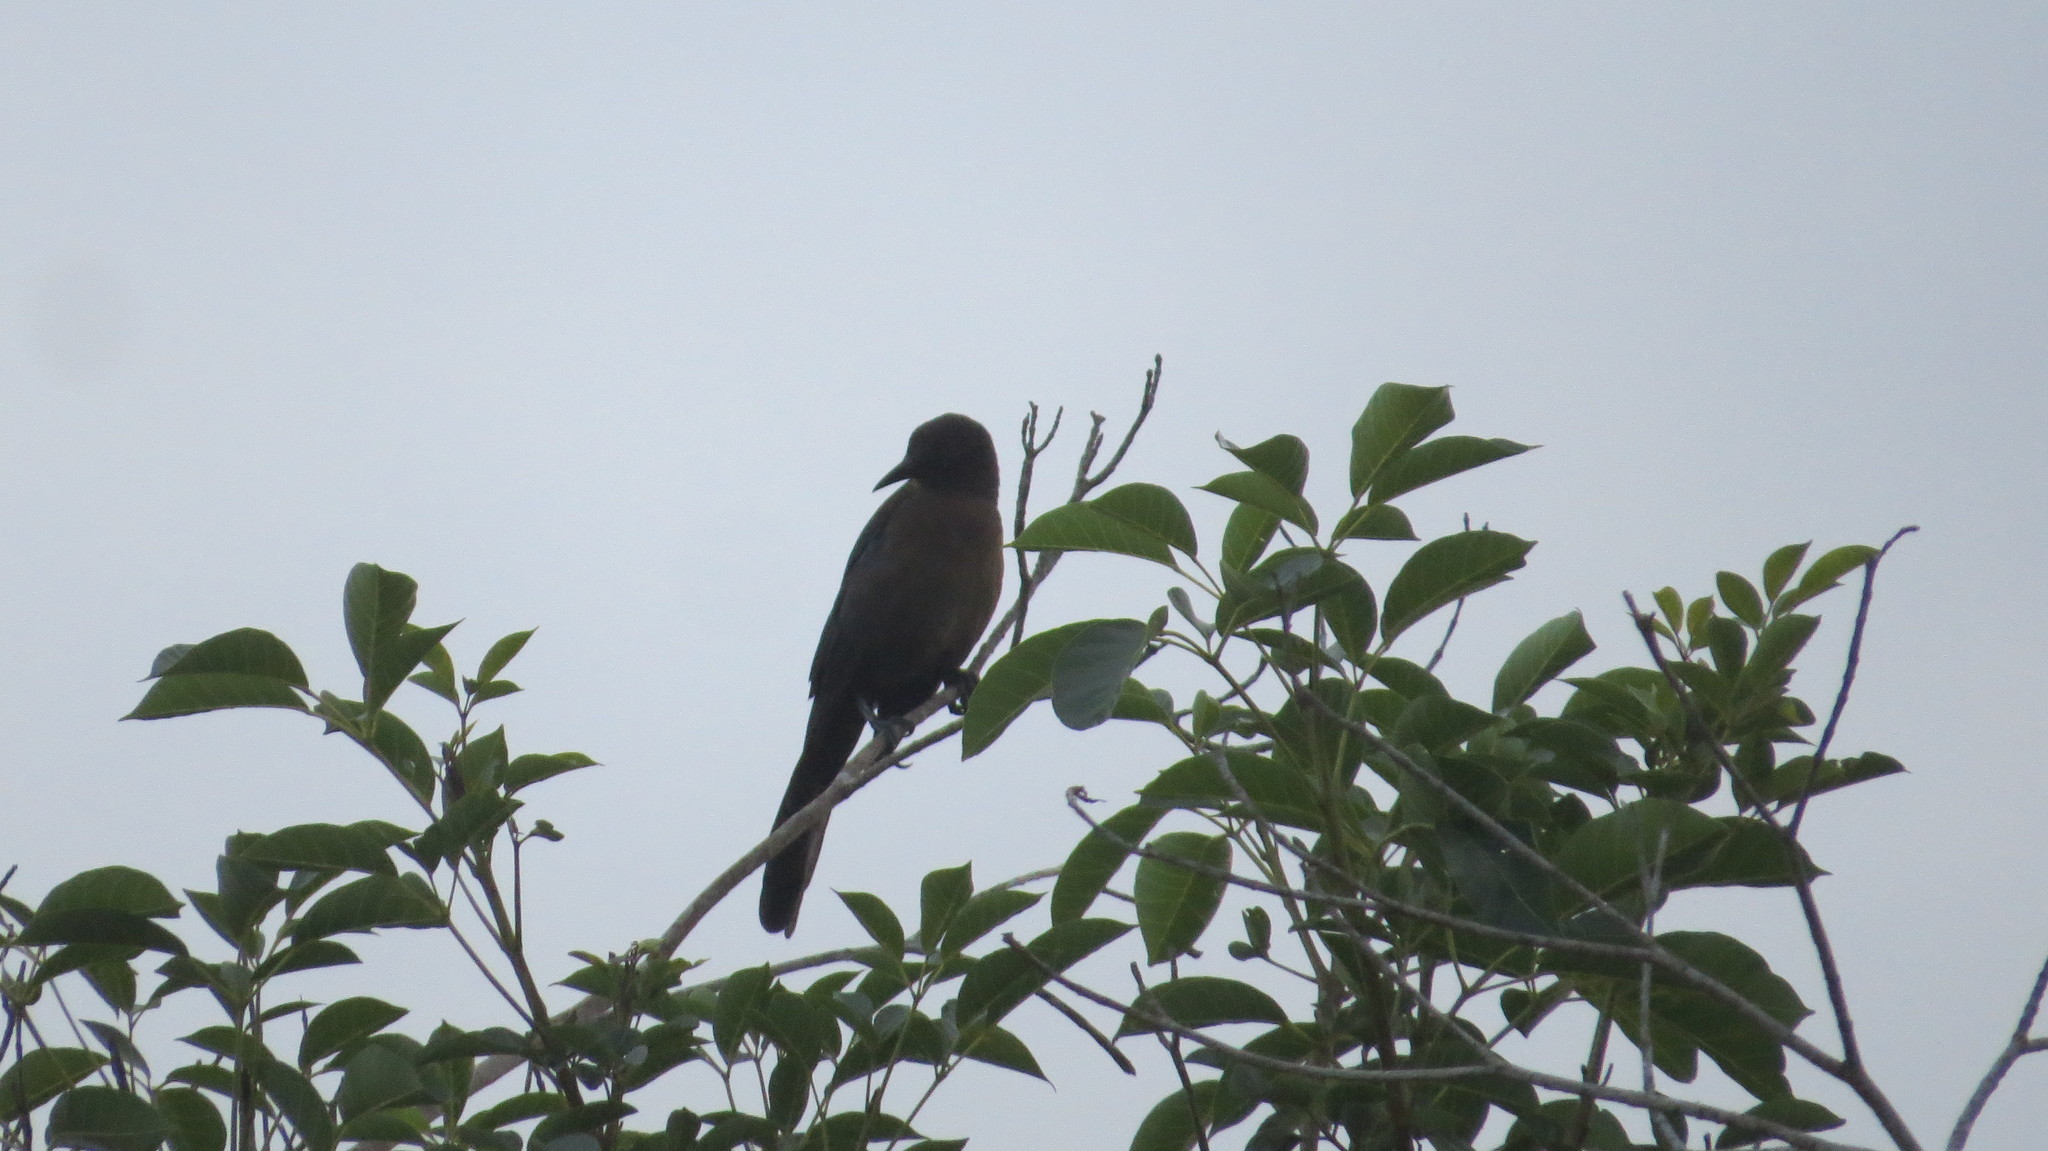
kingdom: Animalia
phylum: Chordata
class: Aves
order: Passeriformes
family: Icteridae
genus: Quiscalus
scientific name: Quiscalus mexicanus
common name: Great-tailed grackle
